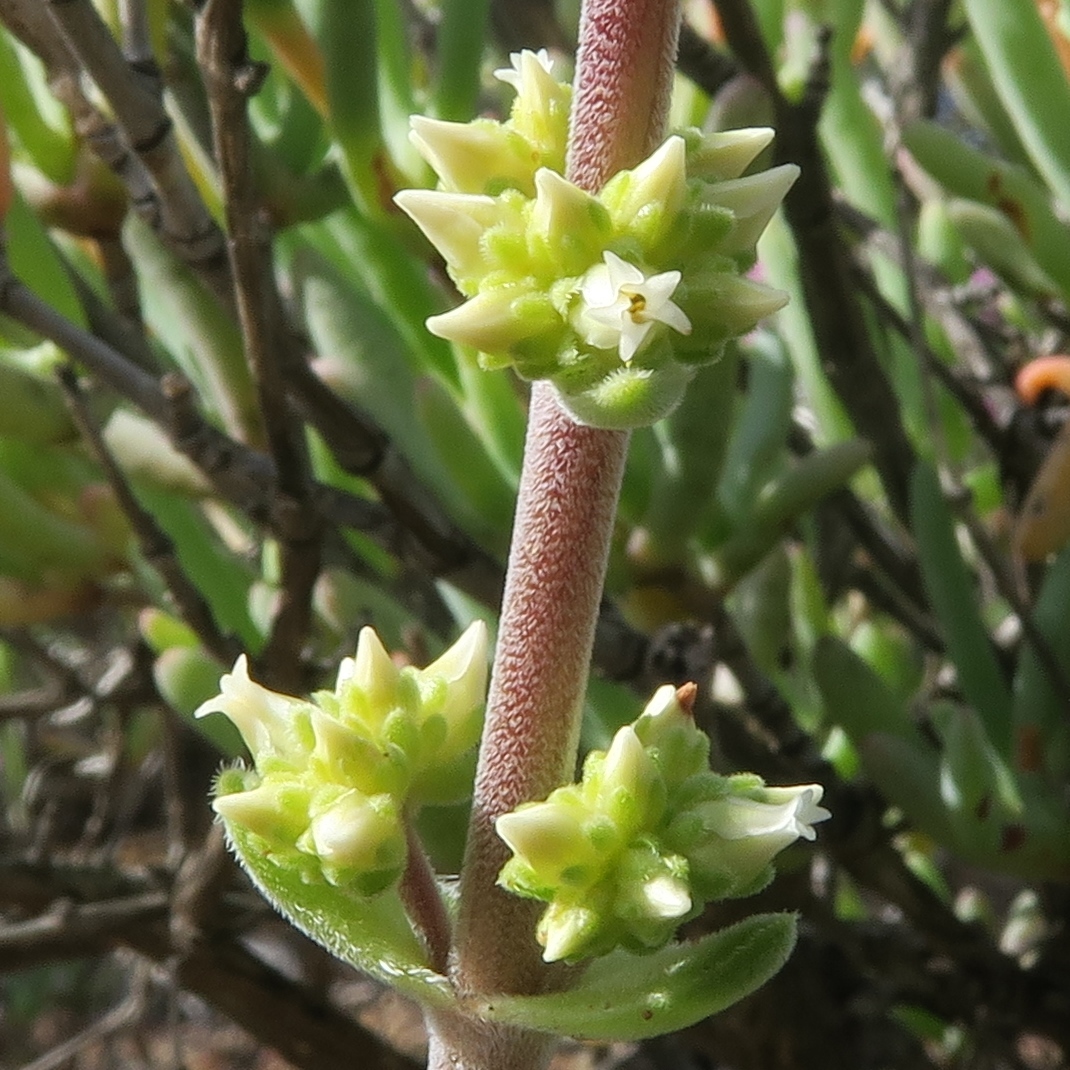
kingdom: Plantae
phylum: Tracheophyta
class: Magnoliopsida
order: Saxifragales
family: Crassulaceae
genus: Crassula
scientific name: Crassula tomentosa
